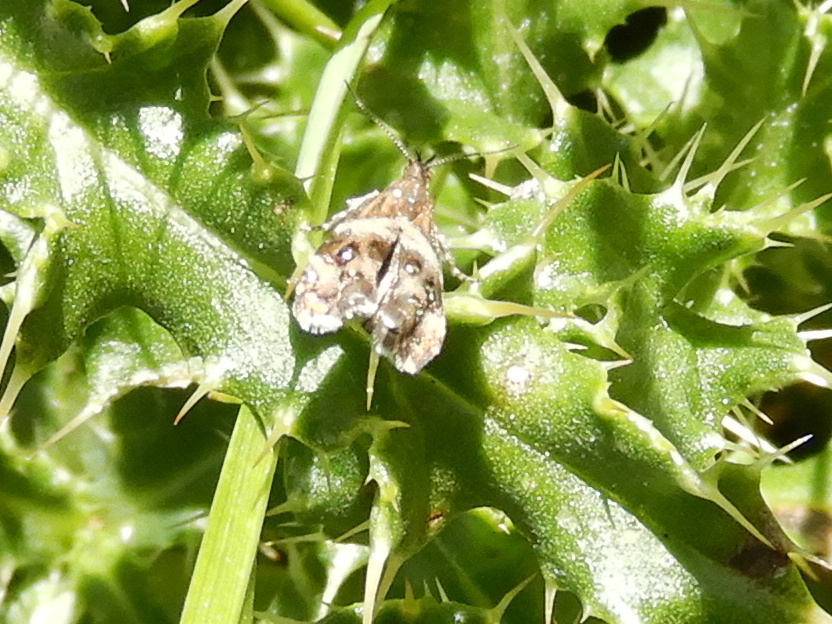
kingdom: Animalia
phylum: Arthropoda
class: Insecta
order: Lepidoptera
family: Choreutidae
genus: Tebenna
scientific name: Tebenna micalis
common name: Vagrant twitcher
